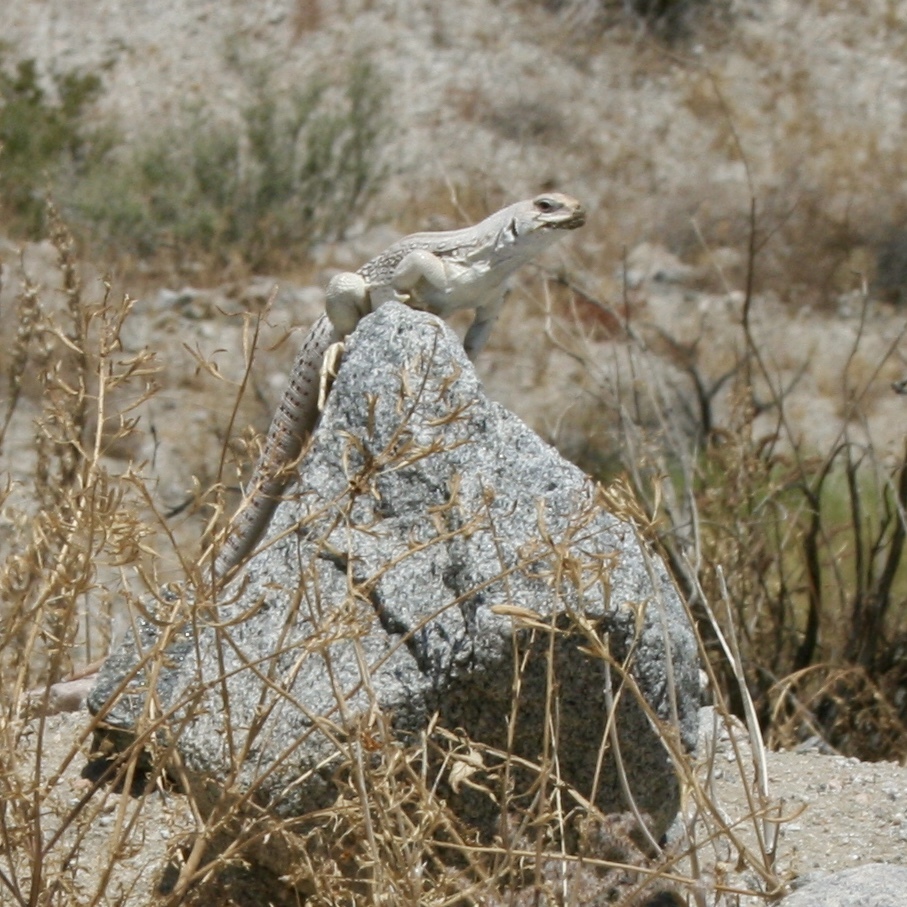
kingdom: Animalia
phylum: Chordata
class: Squamata
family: Iguanidae
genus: Dipsosaurus
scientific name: Dipsosaurus dorsalis
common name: Desert iguana
